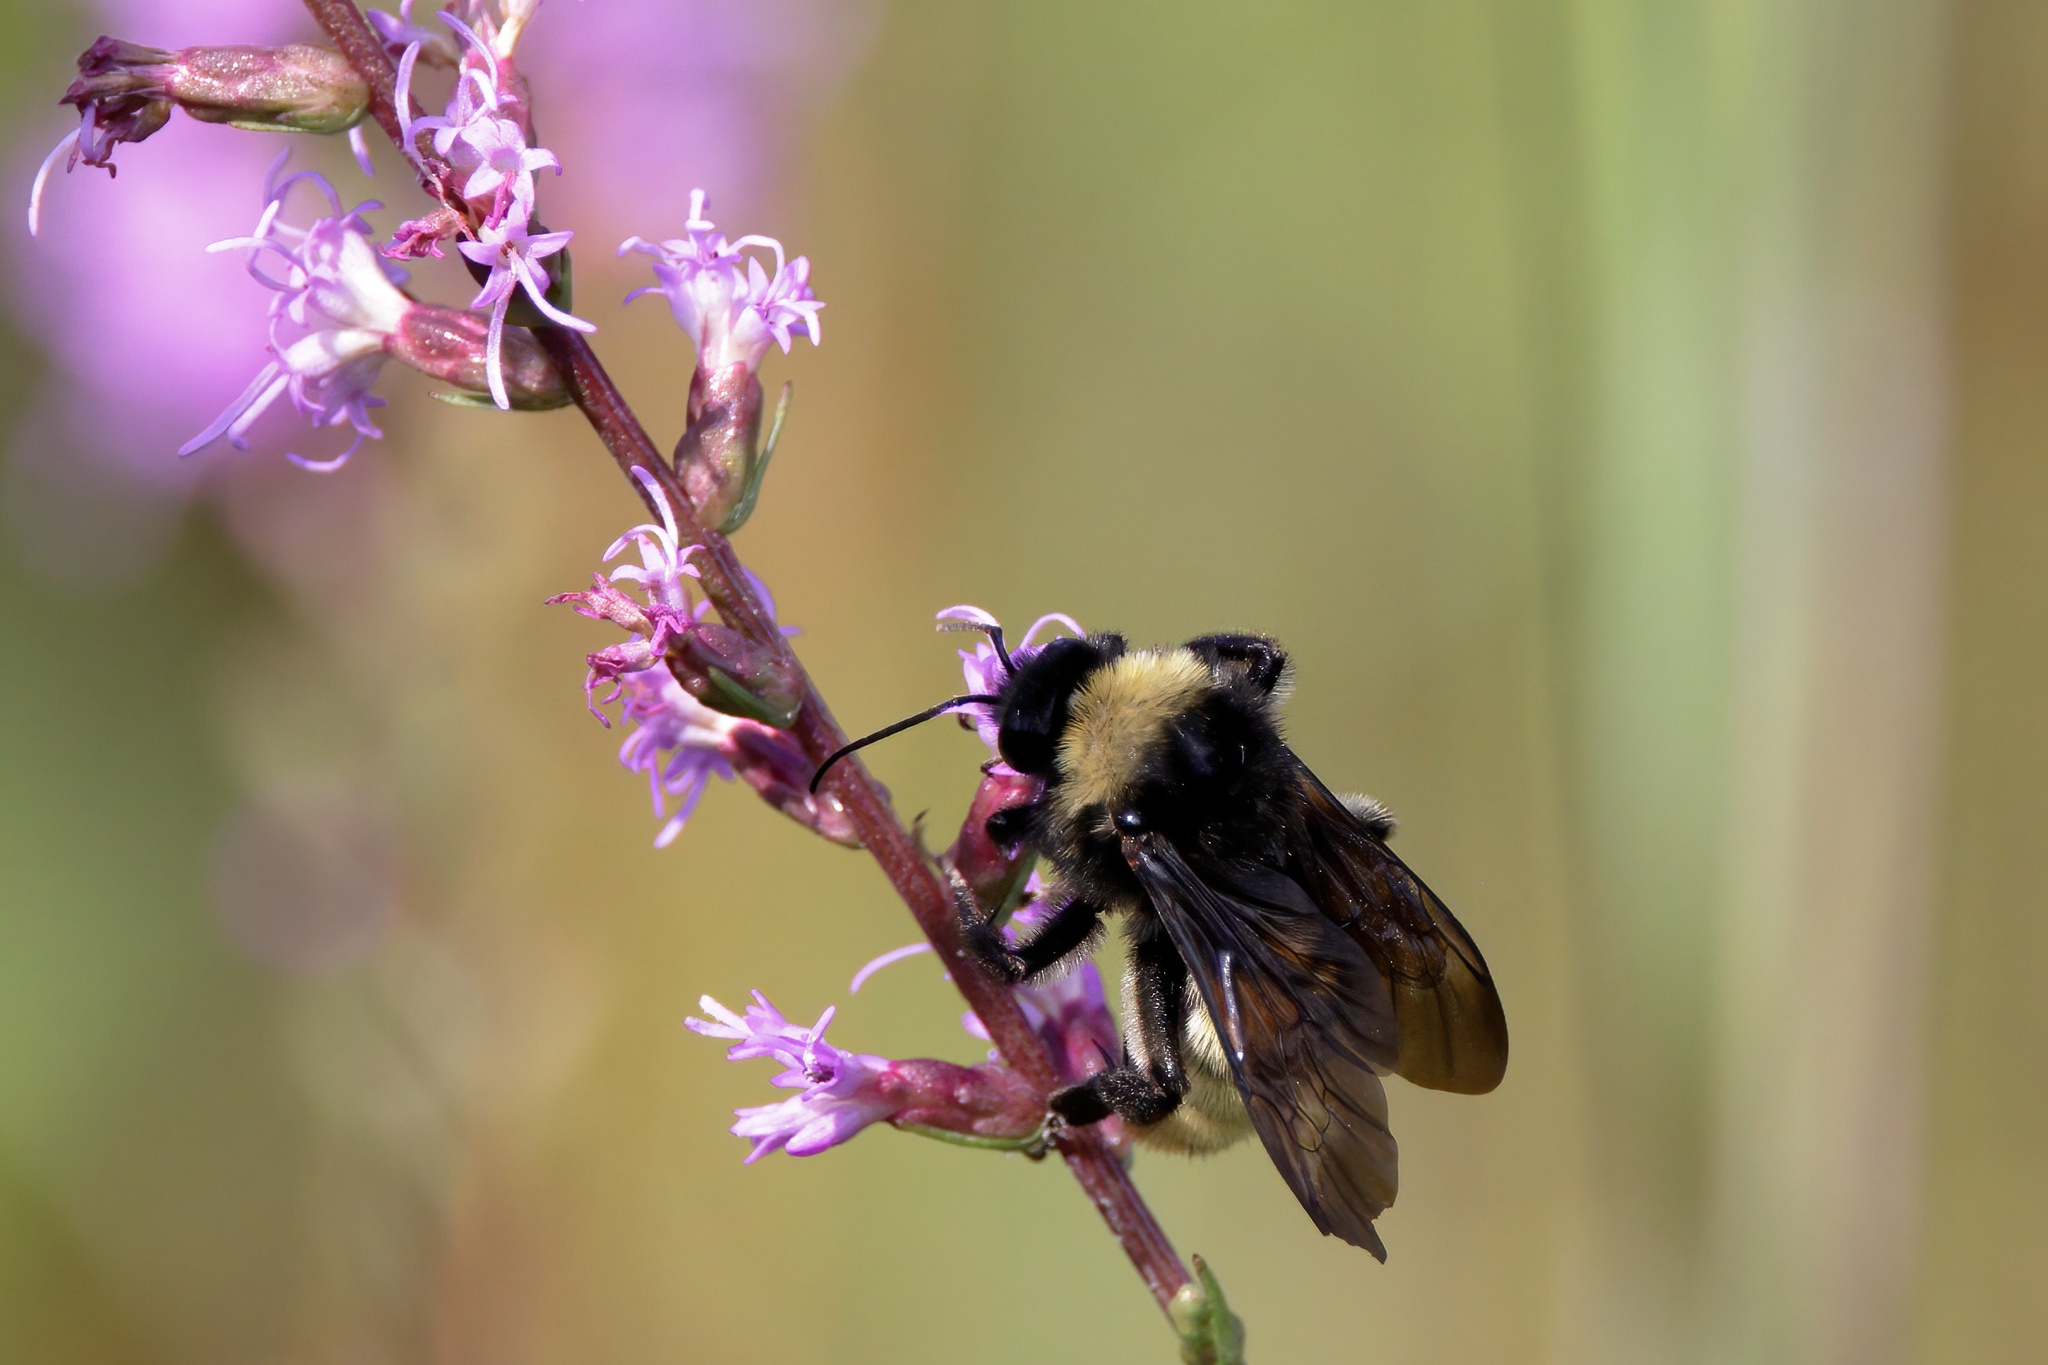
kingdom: Animalia
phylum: Arthropoda
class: Insecta
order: Hymenoptera
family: Apidae
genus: Bombus
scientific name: Bombus pensylvanicus
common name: Bumble bee
